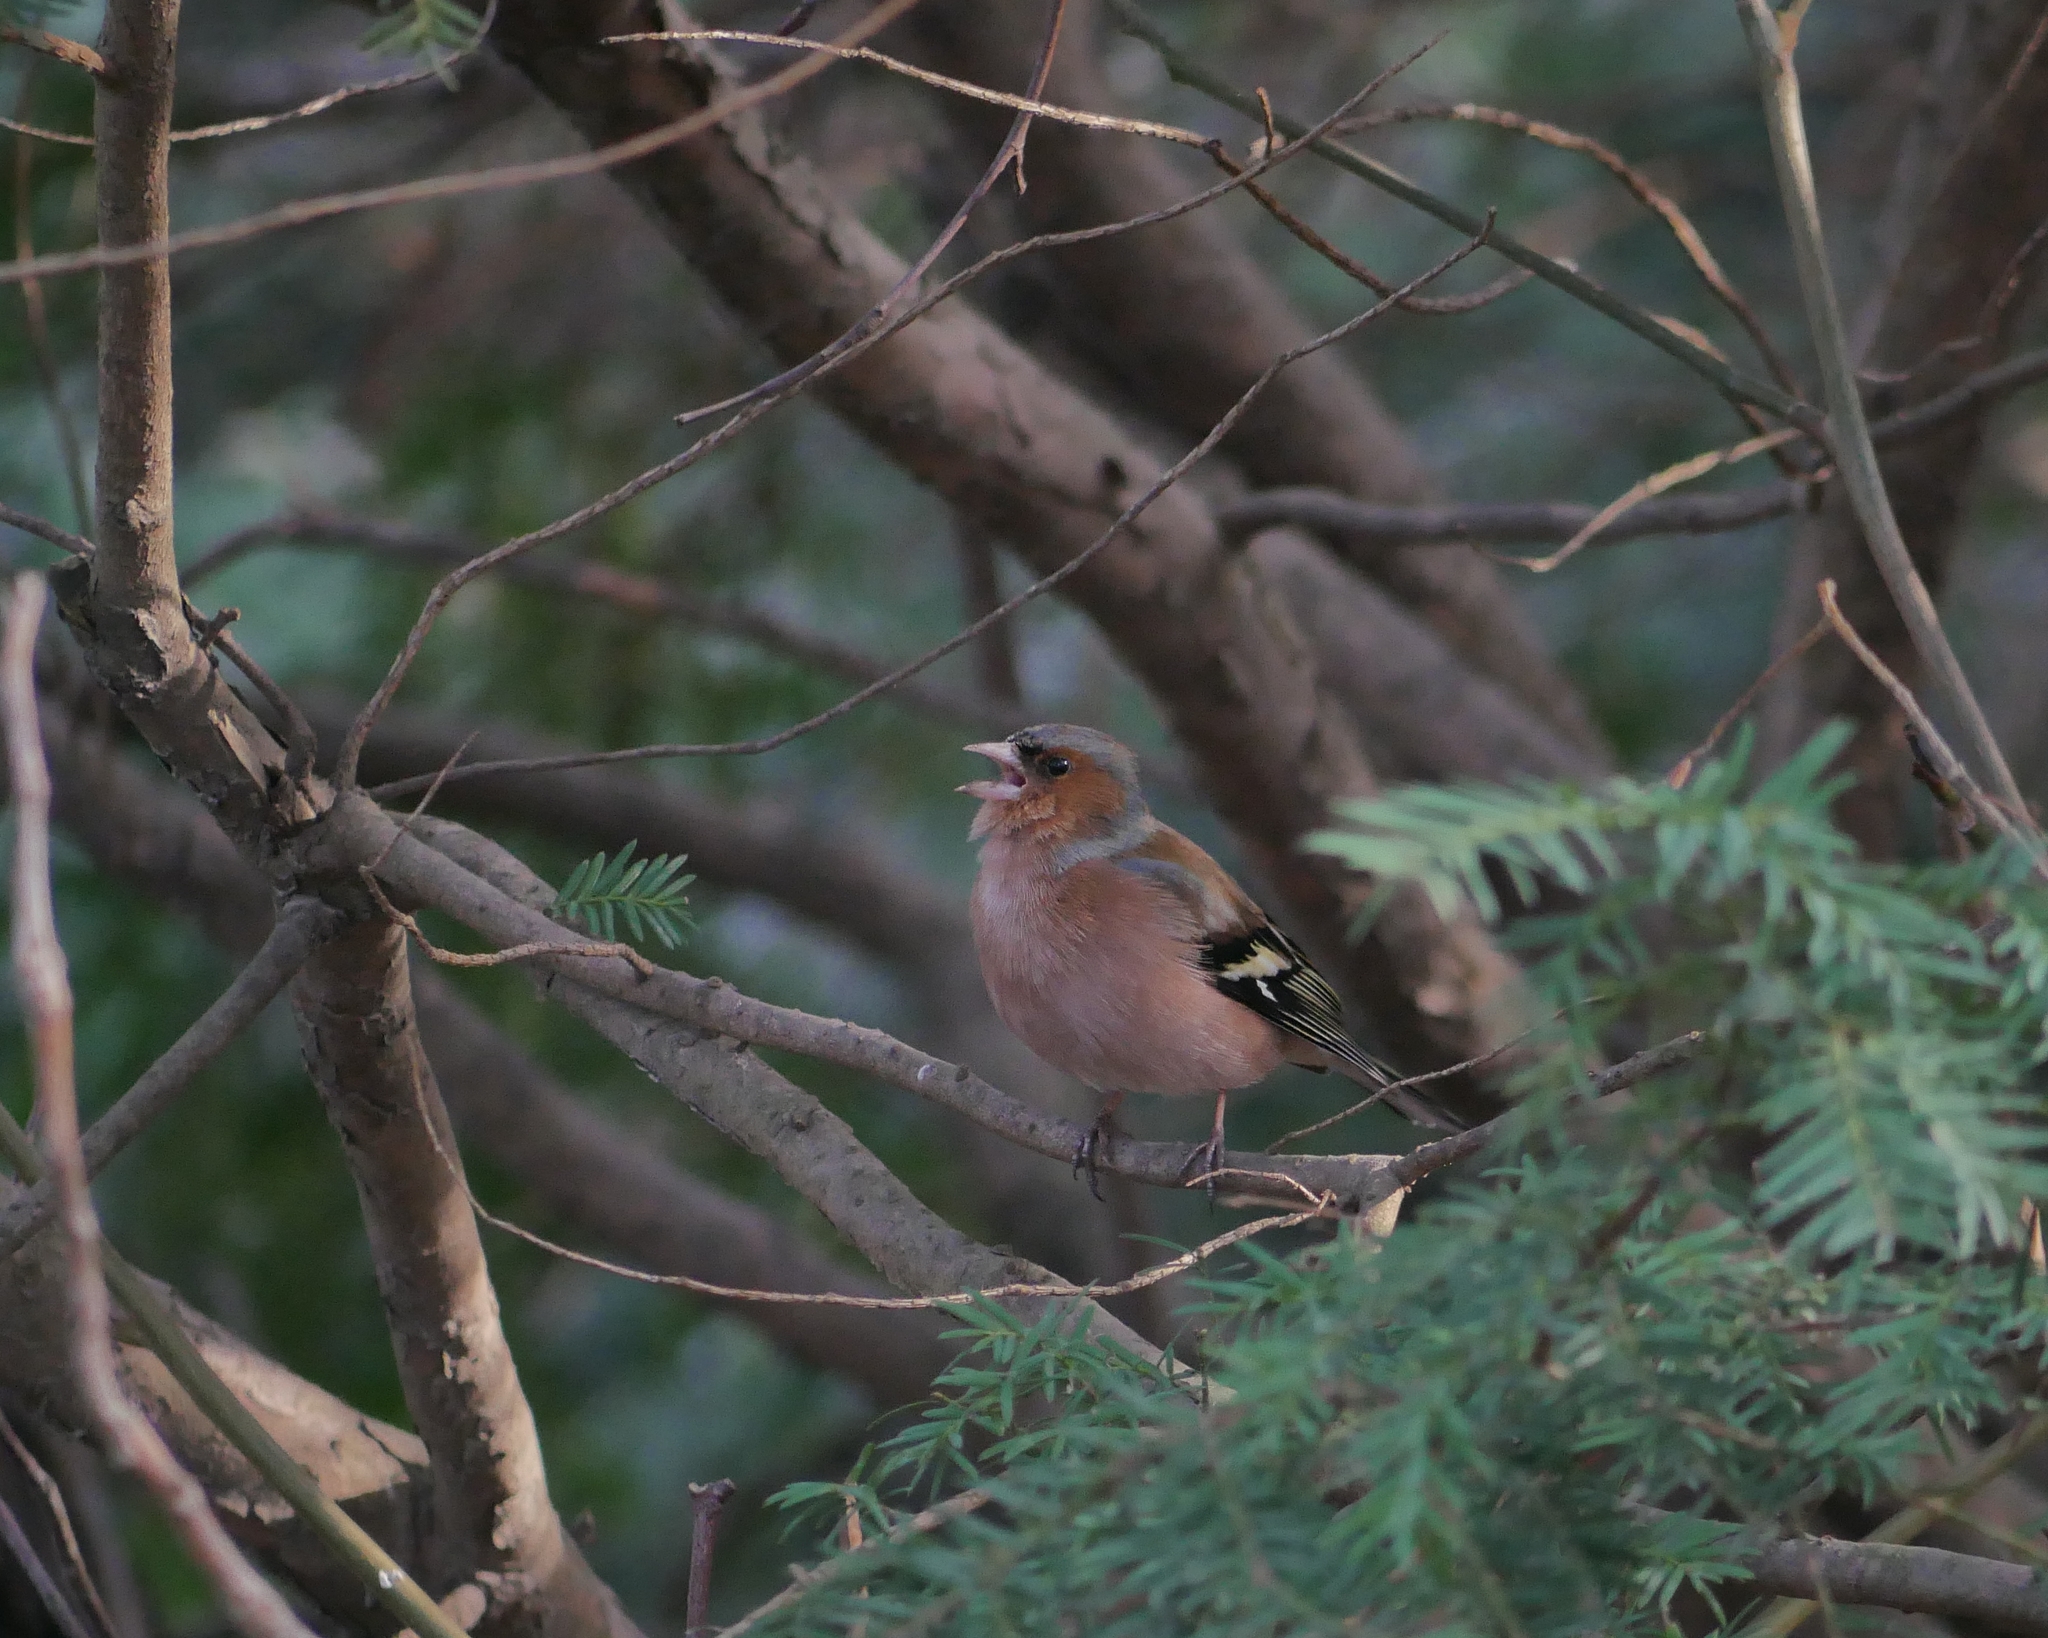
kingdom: Animalia
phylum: Chordata
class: Aves
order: Passeriformes
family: Fringillidae
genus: Fringilla
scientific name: Fringilla coelebs
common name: Common chaffinch
